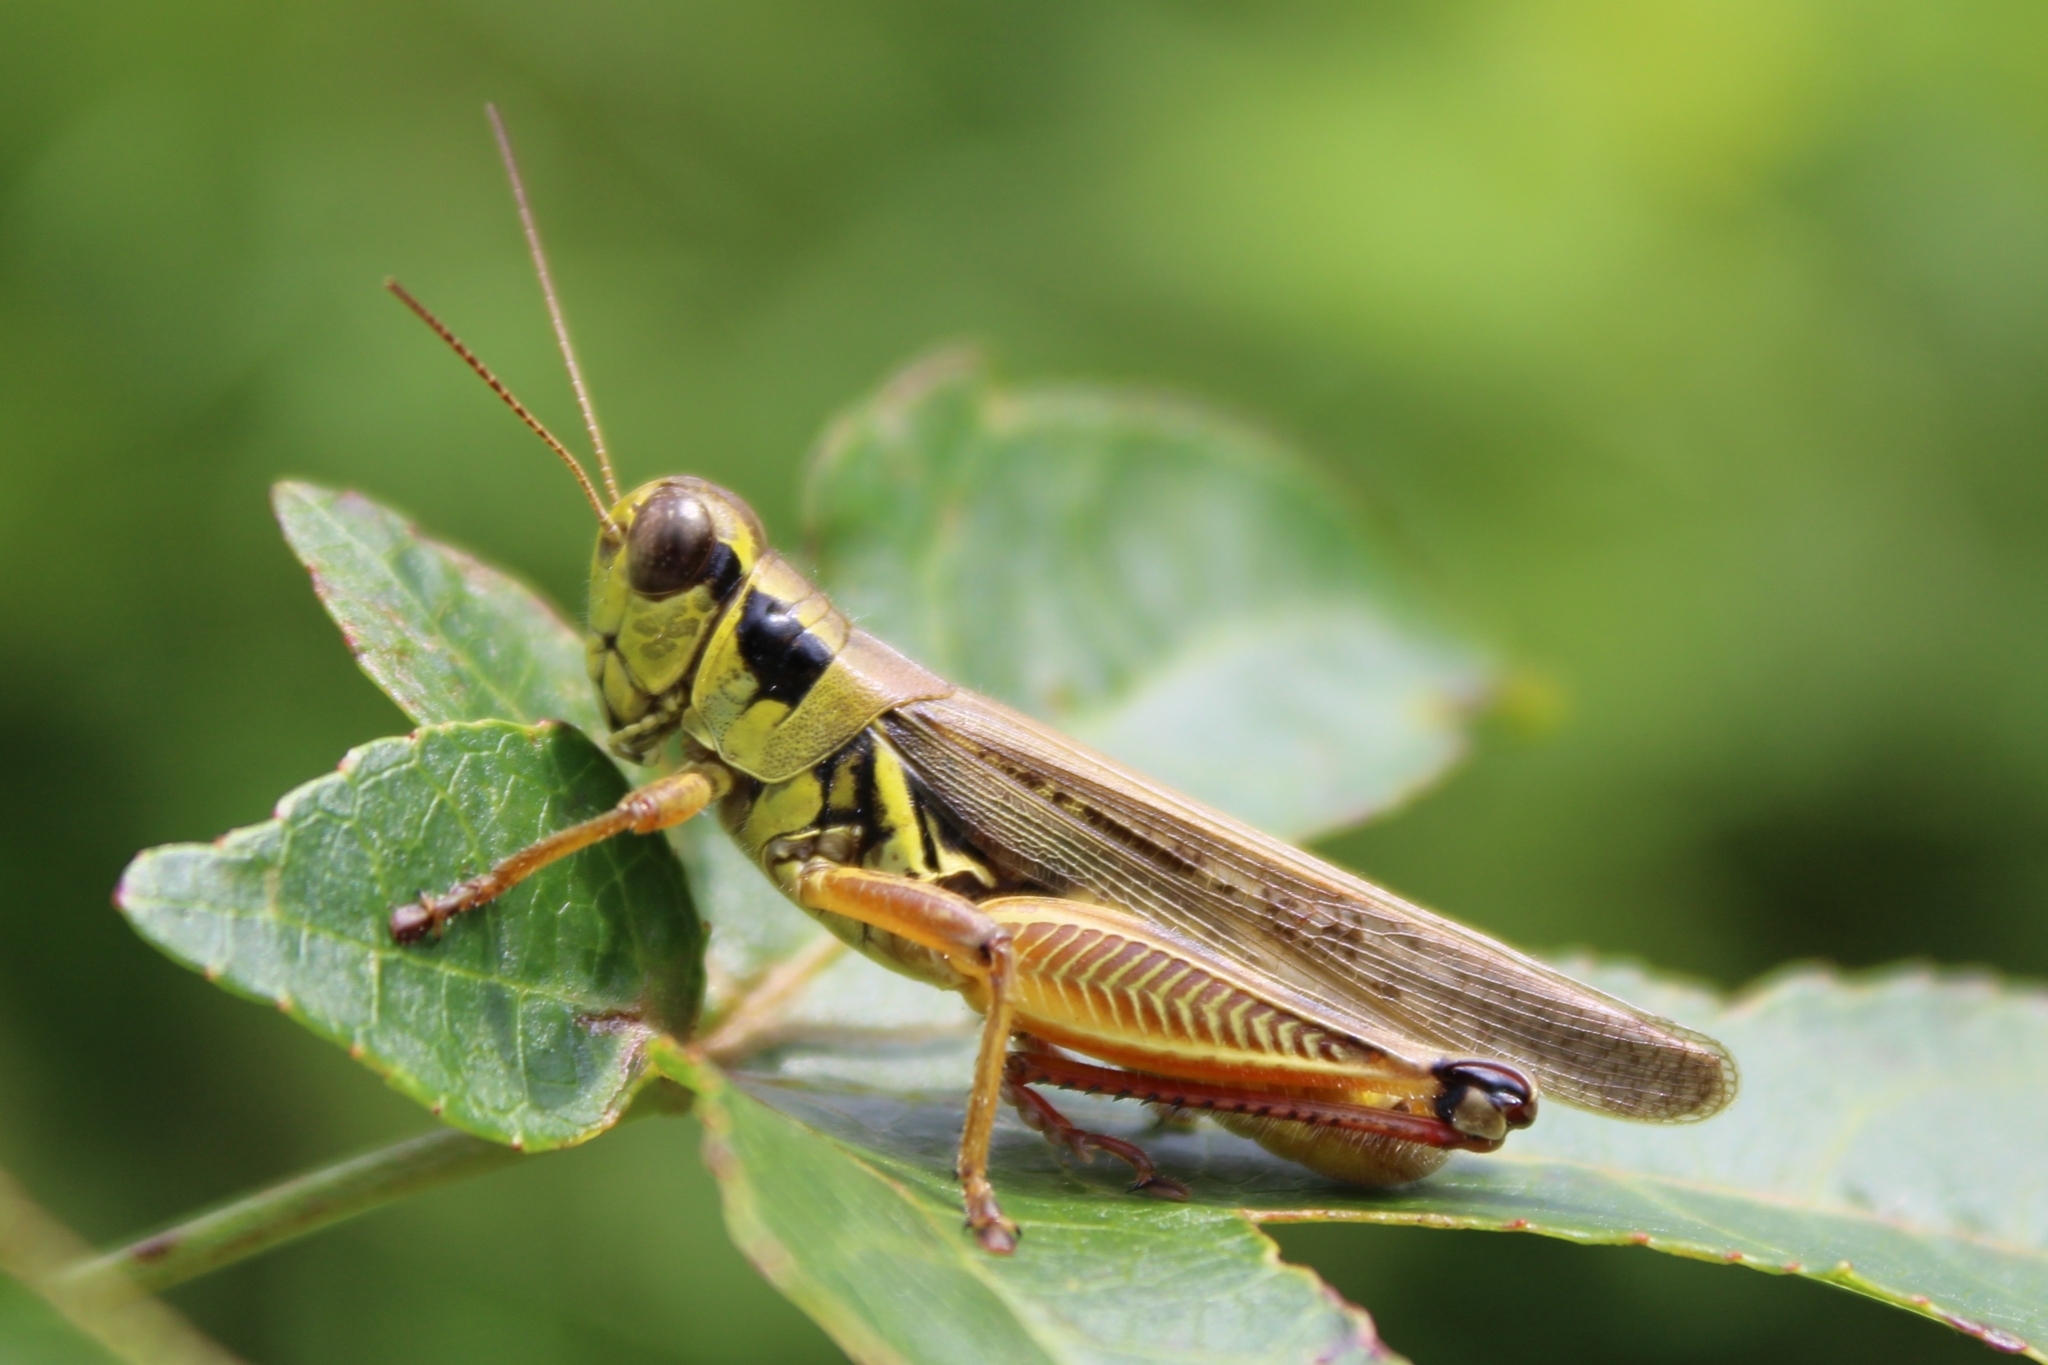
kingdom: Animalia
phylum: Arthropoda
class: Insecta
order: Orthoptera
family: Acrididae
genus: Melanoplus
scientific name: Melanoplus femurrubrum
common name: Red-legged grasshopper
